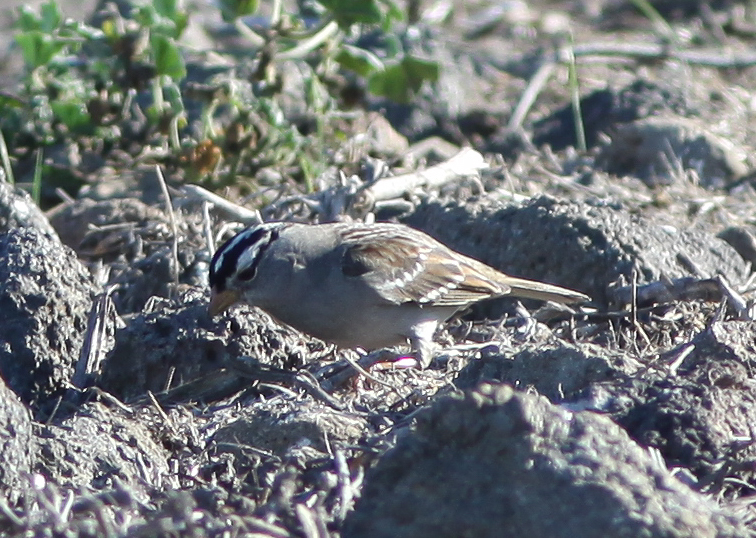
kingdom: Animalia
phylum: Chordata
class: Aves
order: Passeriformes
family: Passerellidae
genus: Zonotrichia
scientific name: Zonotrichia leucophrys
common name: White-crowned sparrow
